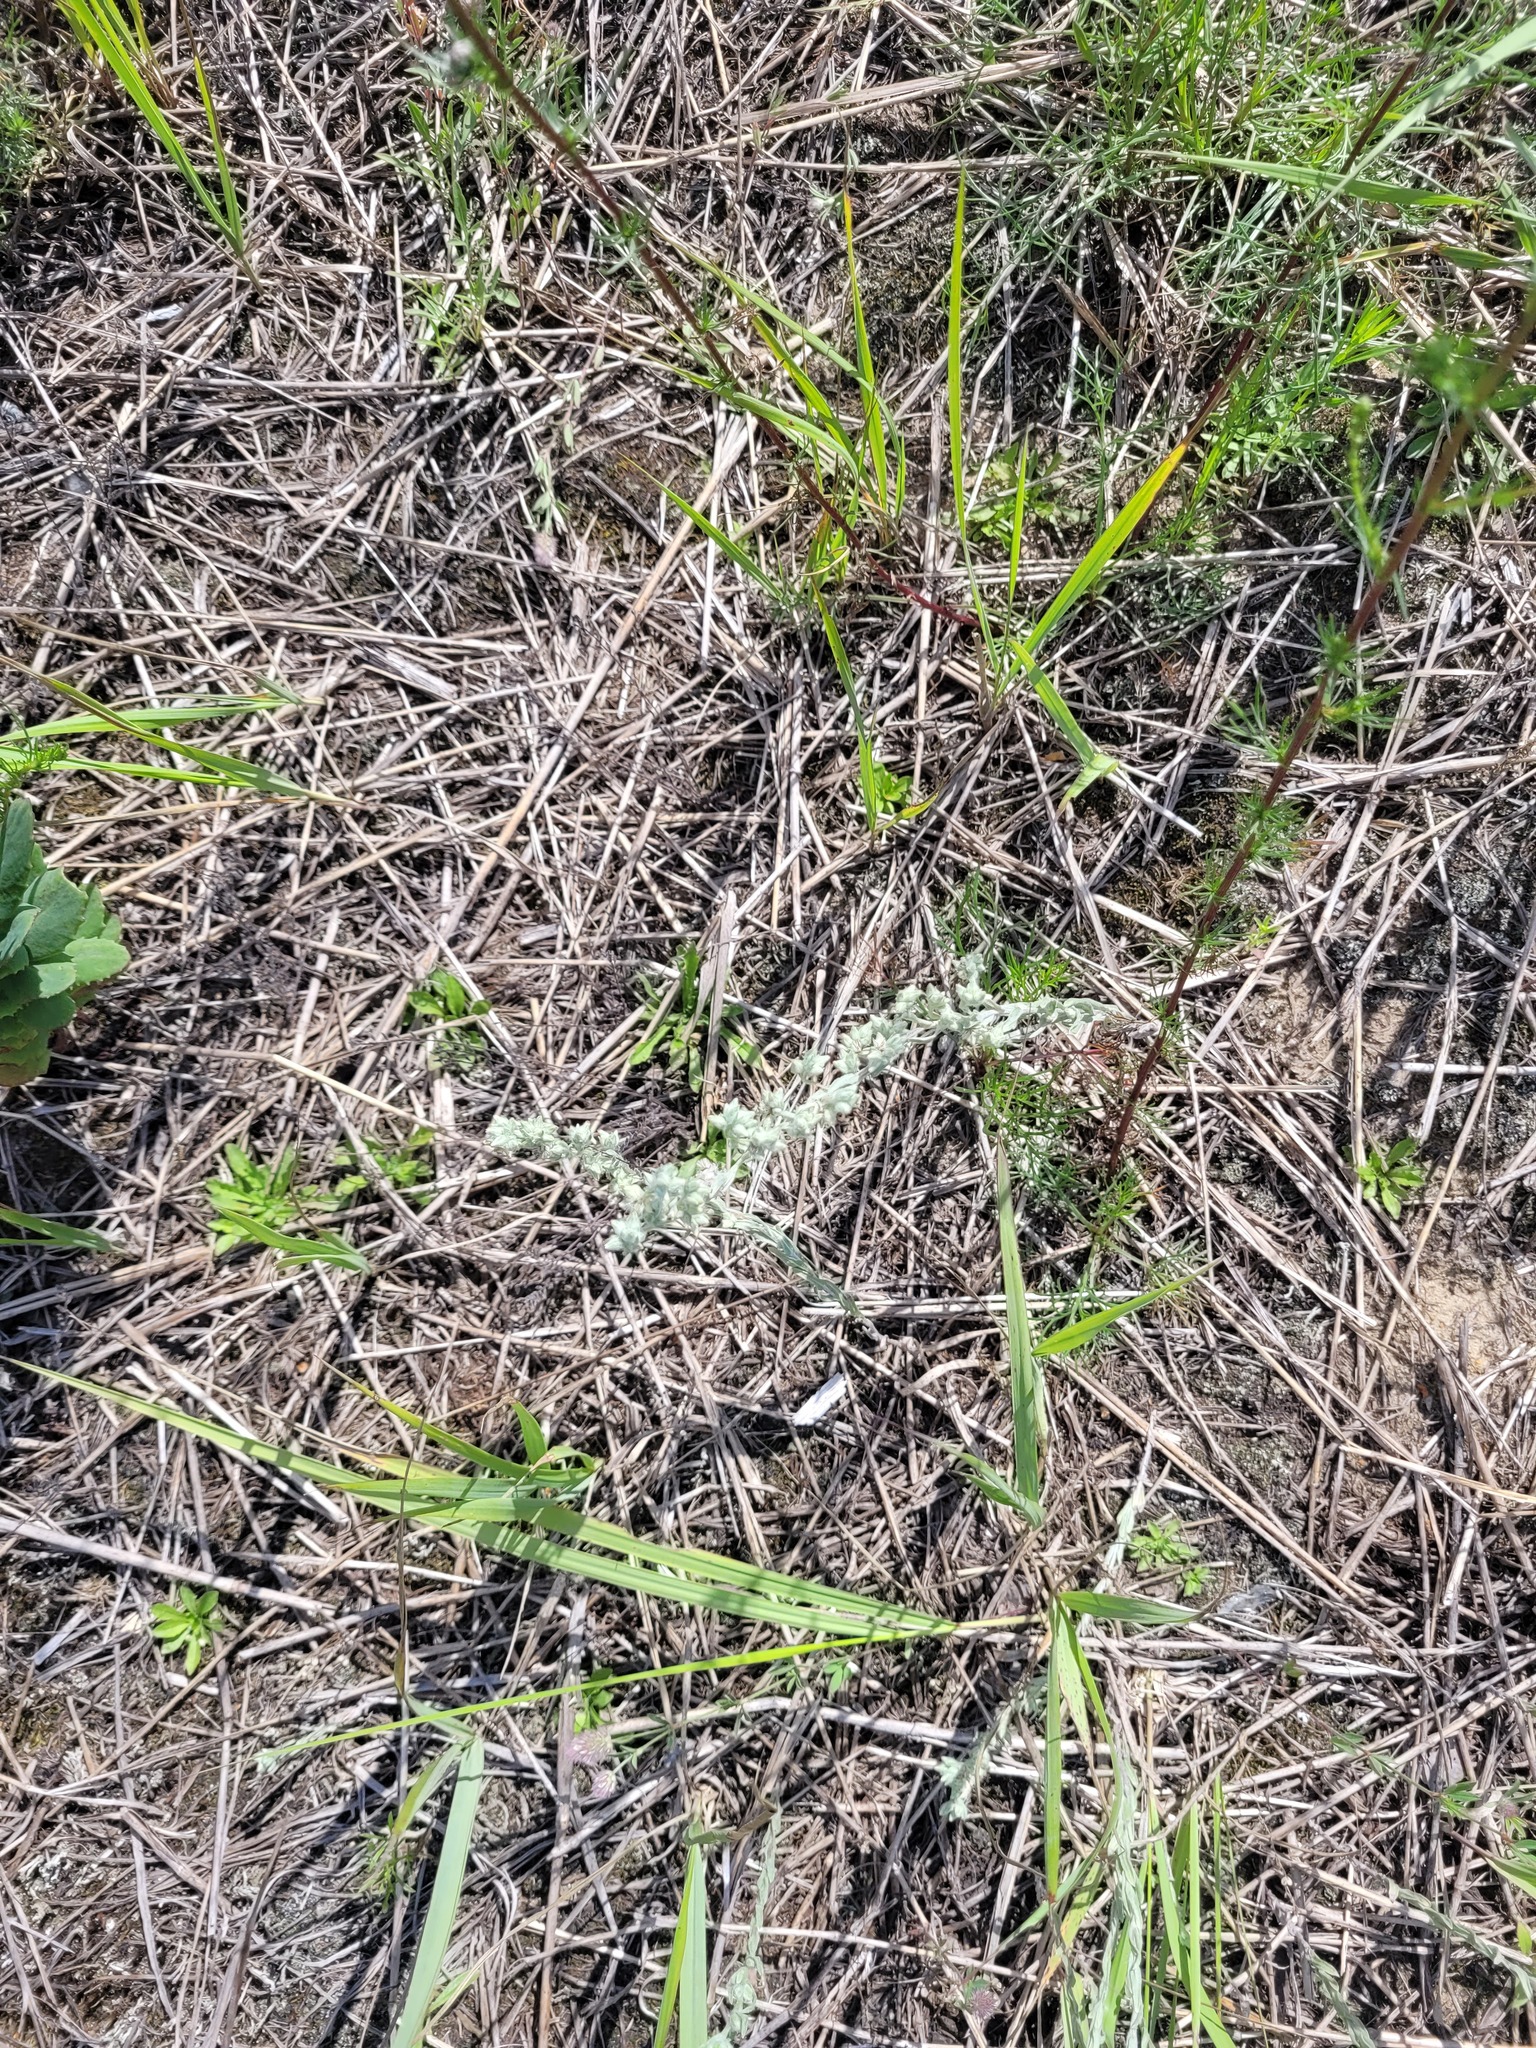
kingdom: Plantae
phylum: Tracheophyta
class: Magnoliopsida
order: Asterales
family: Asteraceae
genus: Filago
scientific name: Filago arvensis
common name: Field cudweed
